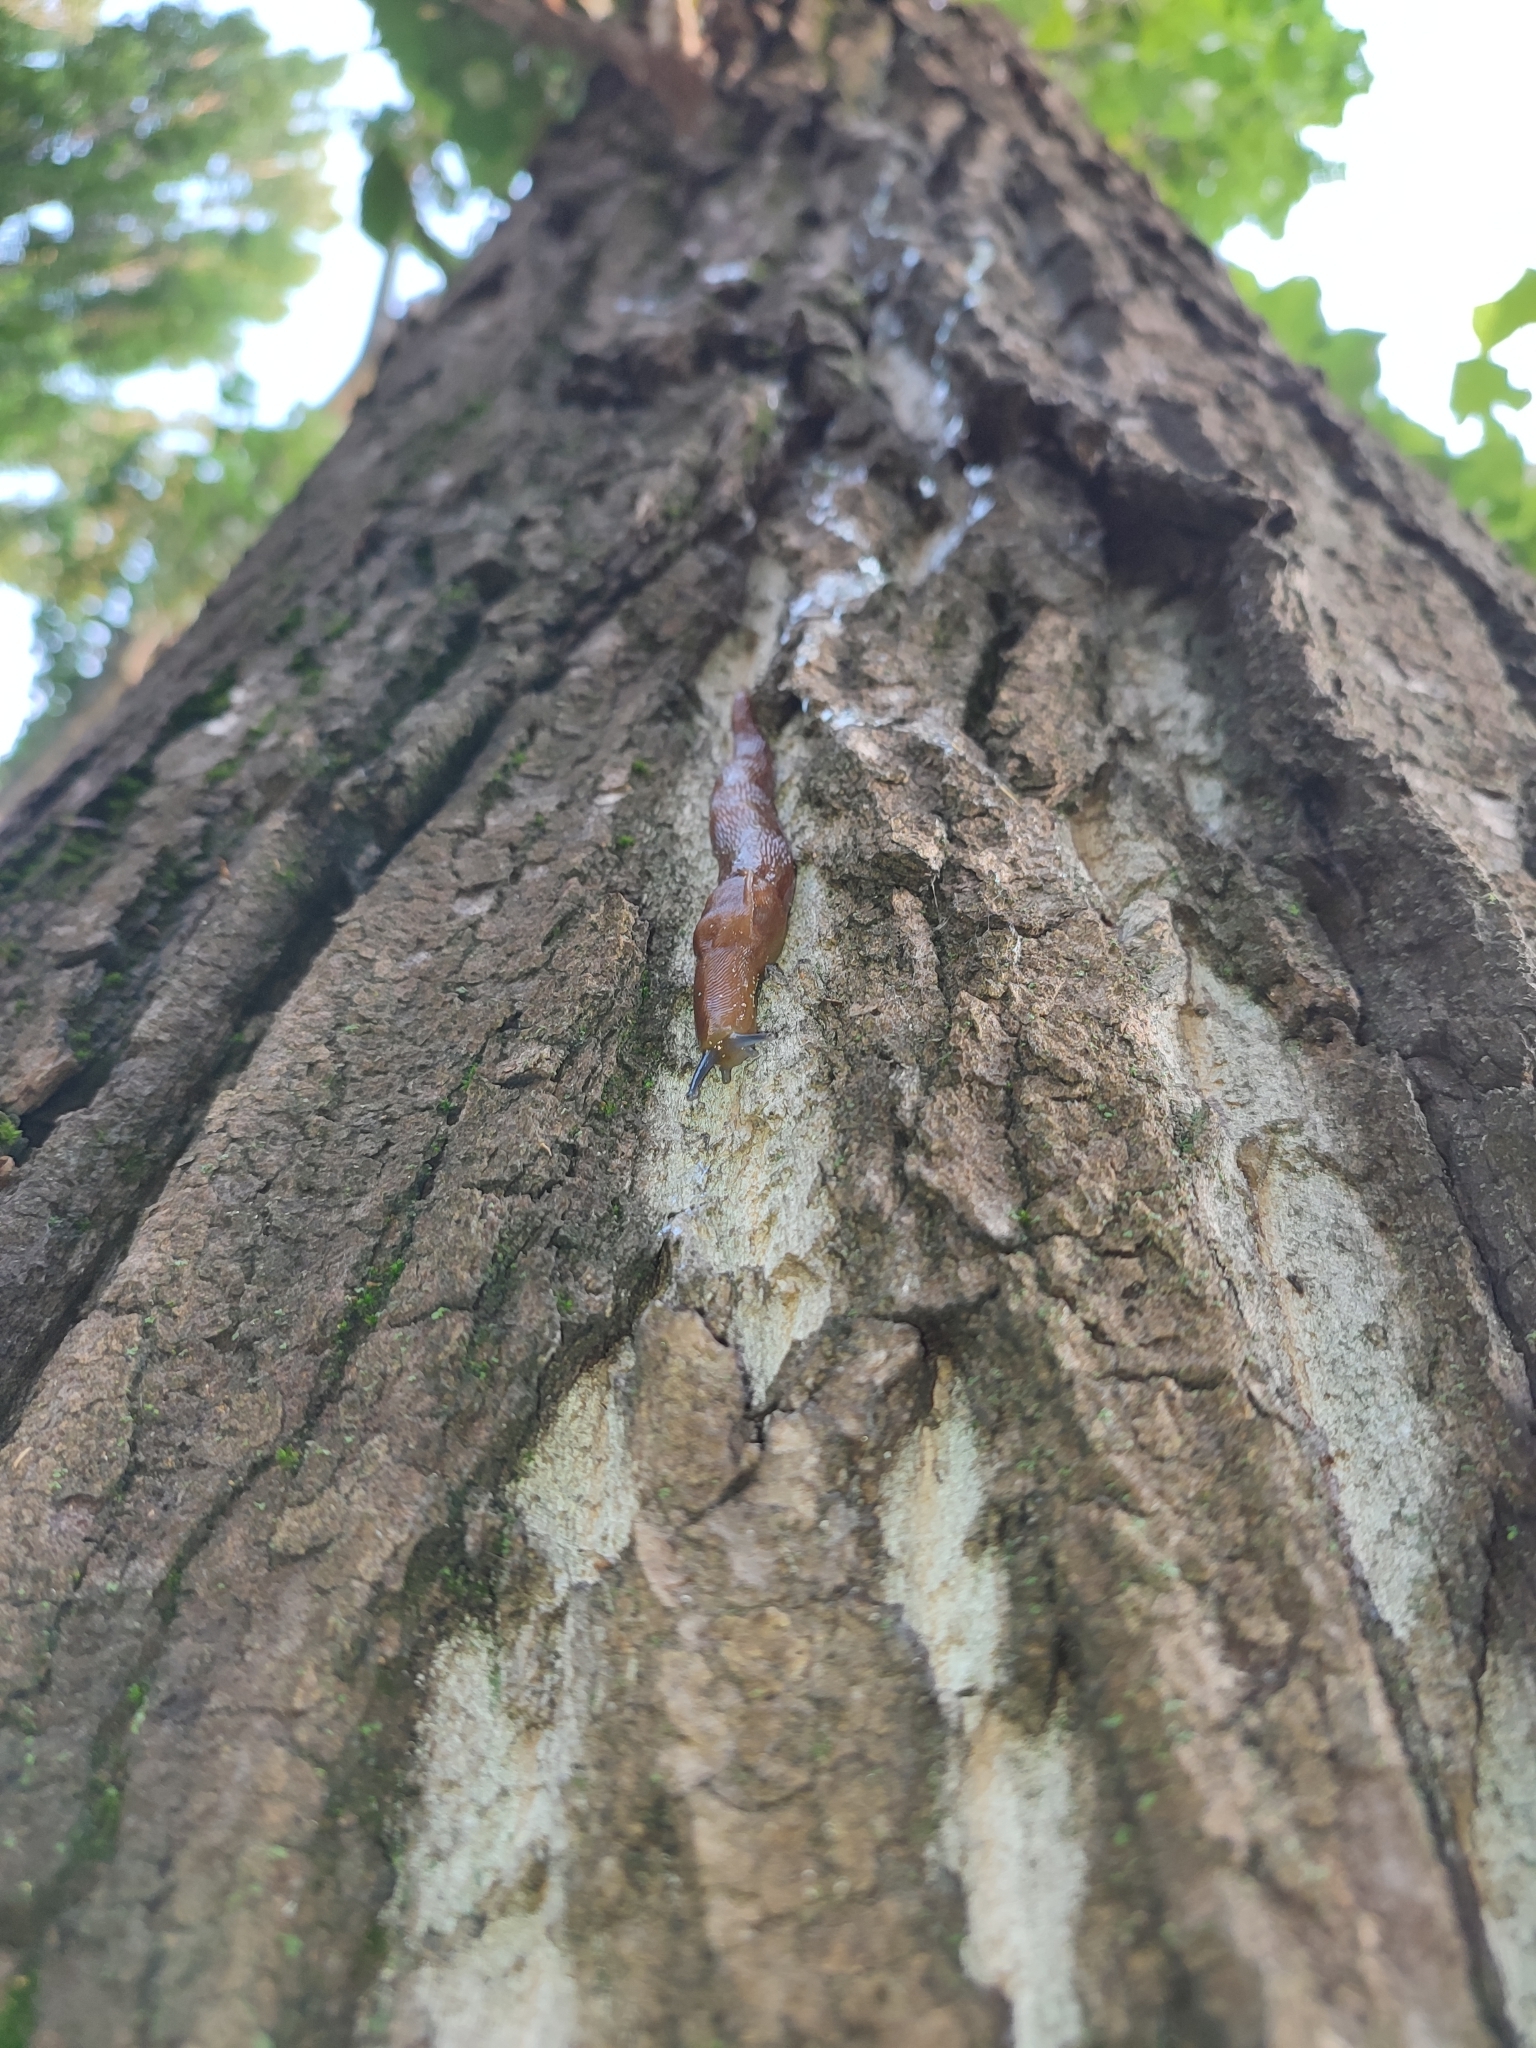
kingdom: Animalia
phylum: Mollusca
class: Gastropoda
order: Stylommatophora
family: Limacidae
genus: Limacus
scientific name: Limacus flavus
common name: Yellow gardenslug
